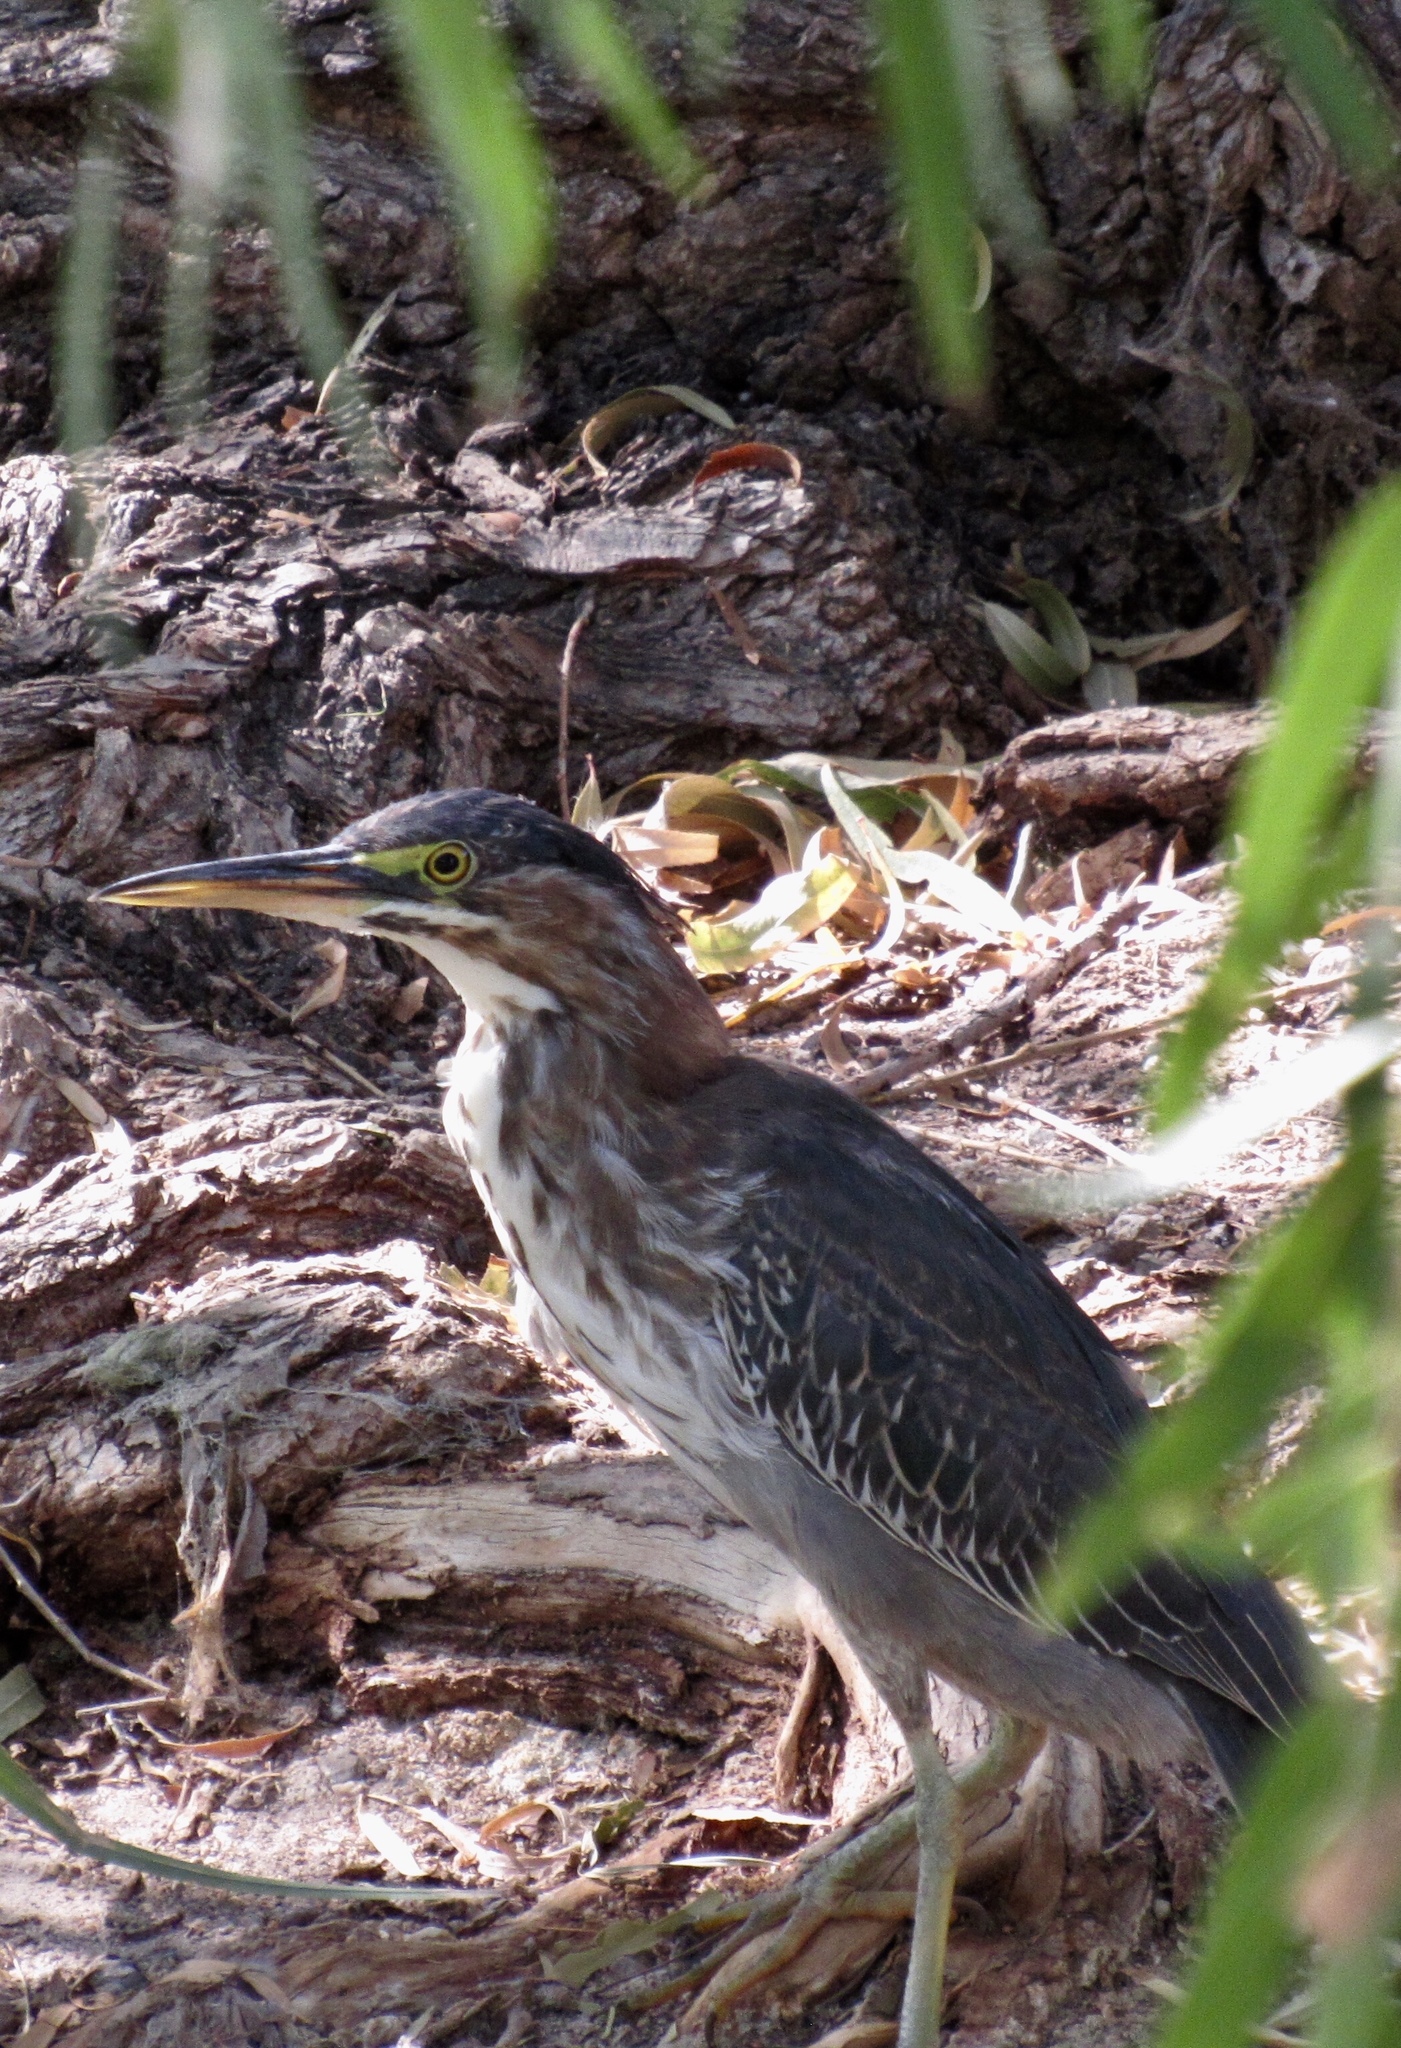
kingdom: Animalia
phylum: Chordata
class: Aves
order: Pelecaniformes
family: Ardeidae
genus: Butorides
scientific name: Butorides virescens
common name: Green heron
